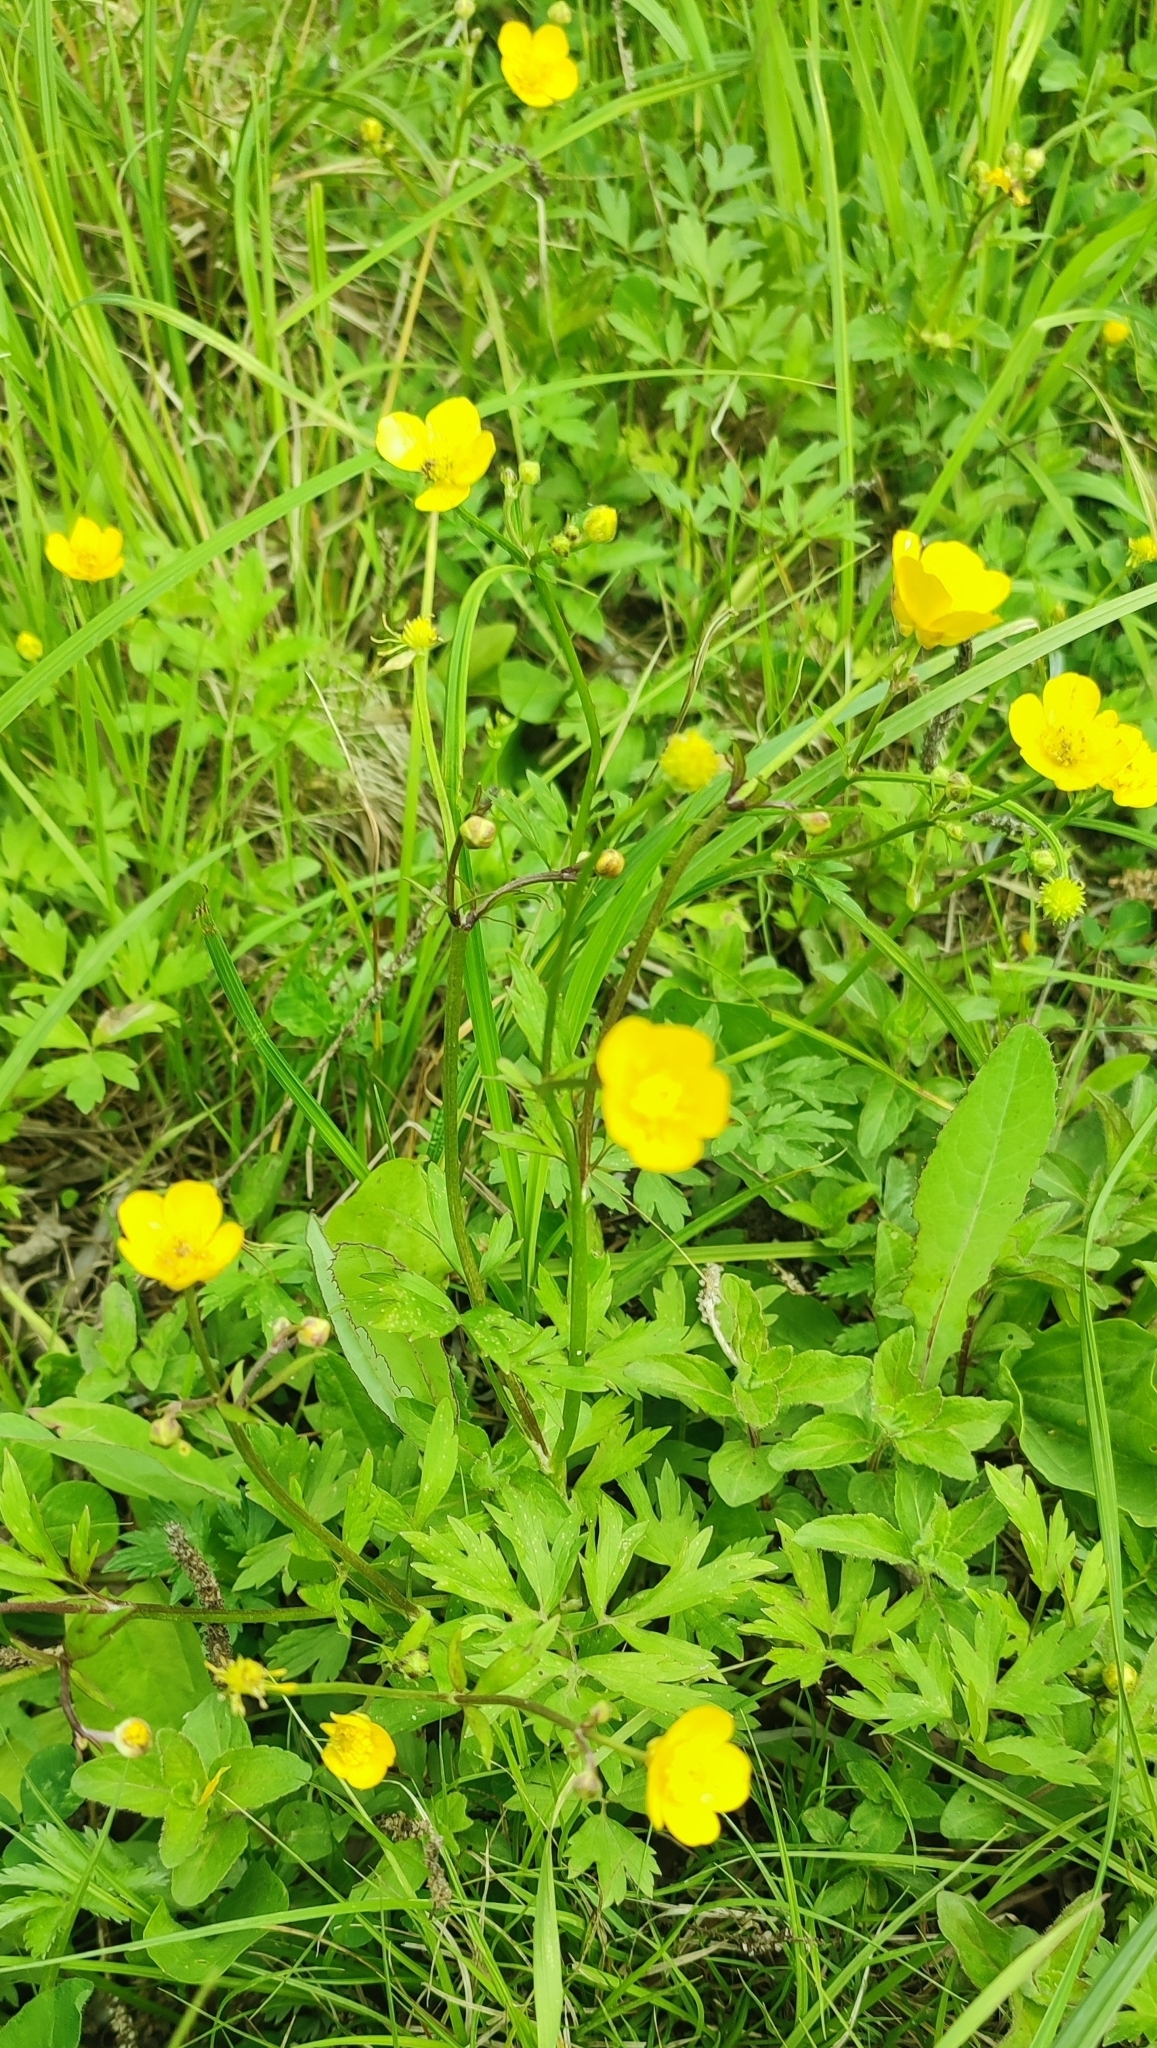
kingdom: Plantae
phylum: Tracheophyta
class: Magnoliopsida
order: Ranunculales
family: Ranunculaceae
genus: Ranunculus
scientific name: Ranunculus repens
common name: Creeping buttercup
